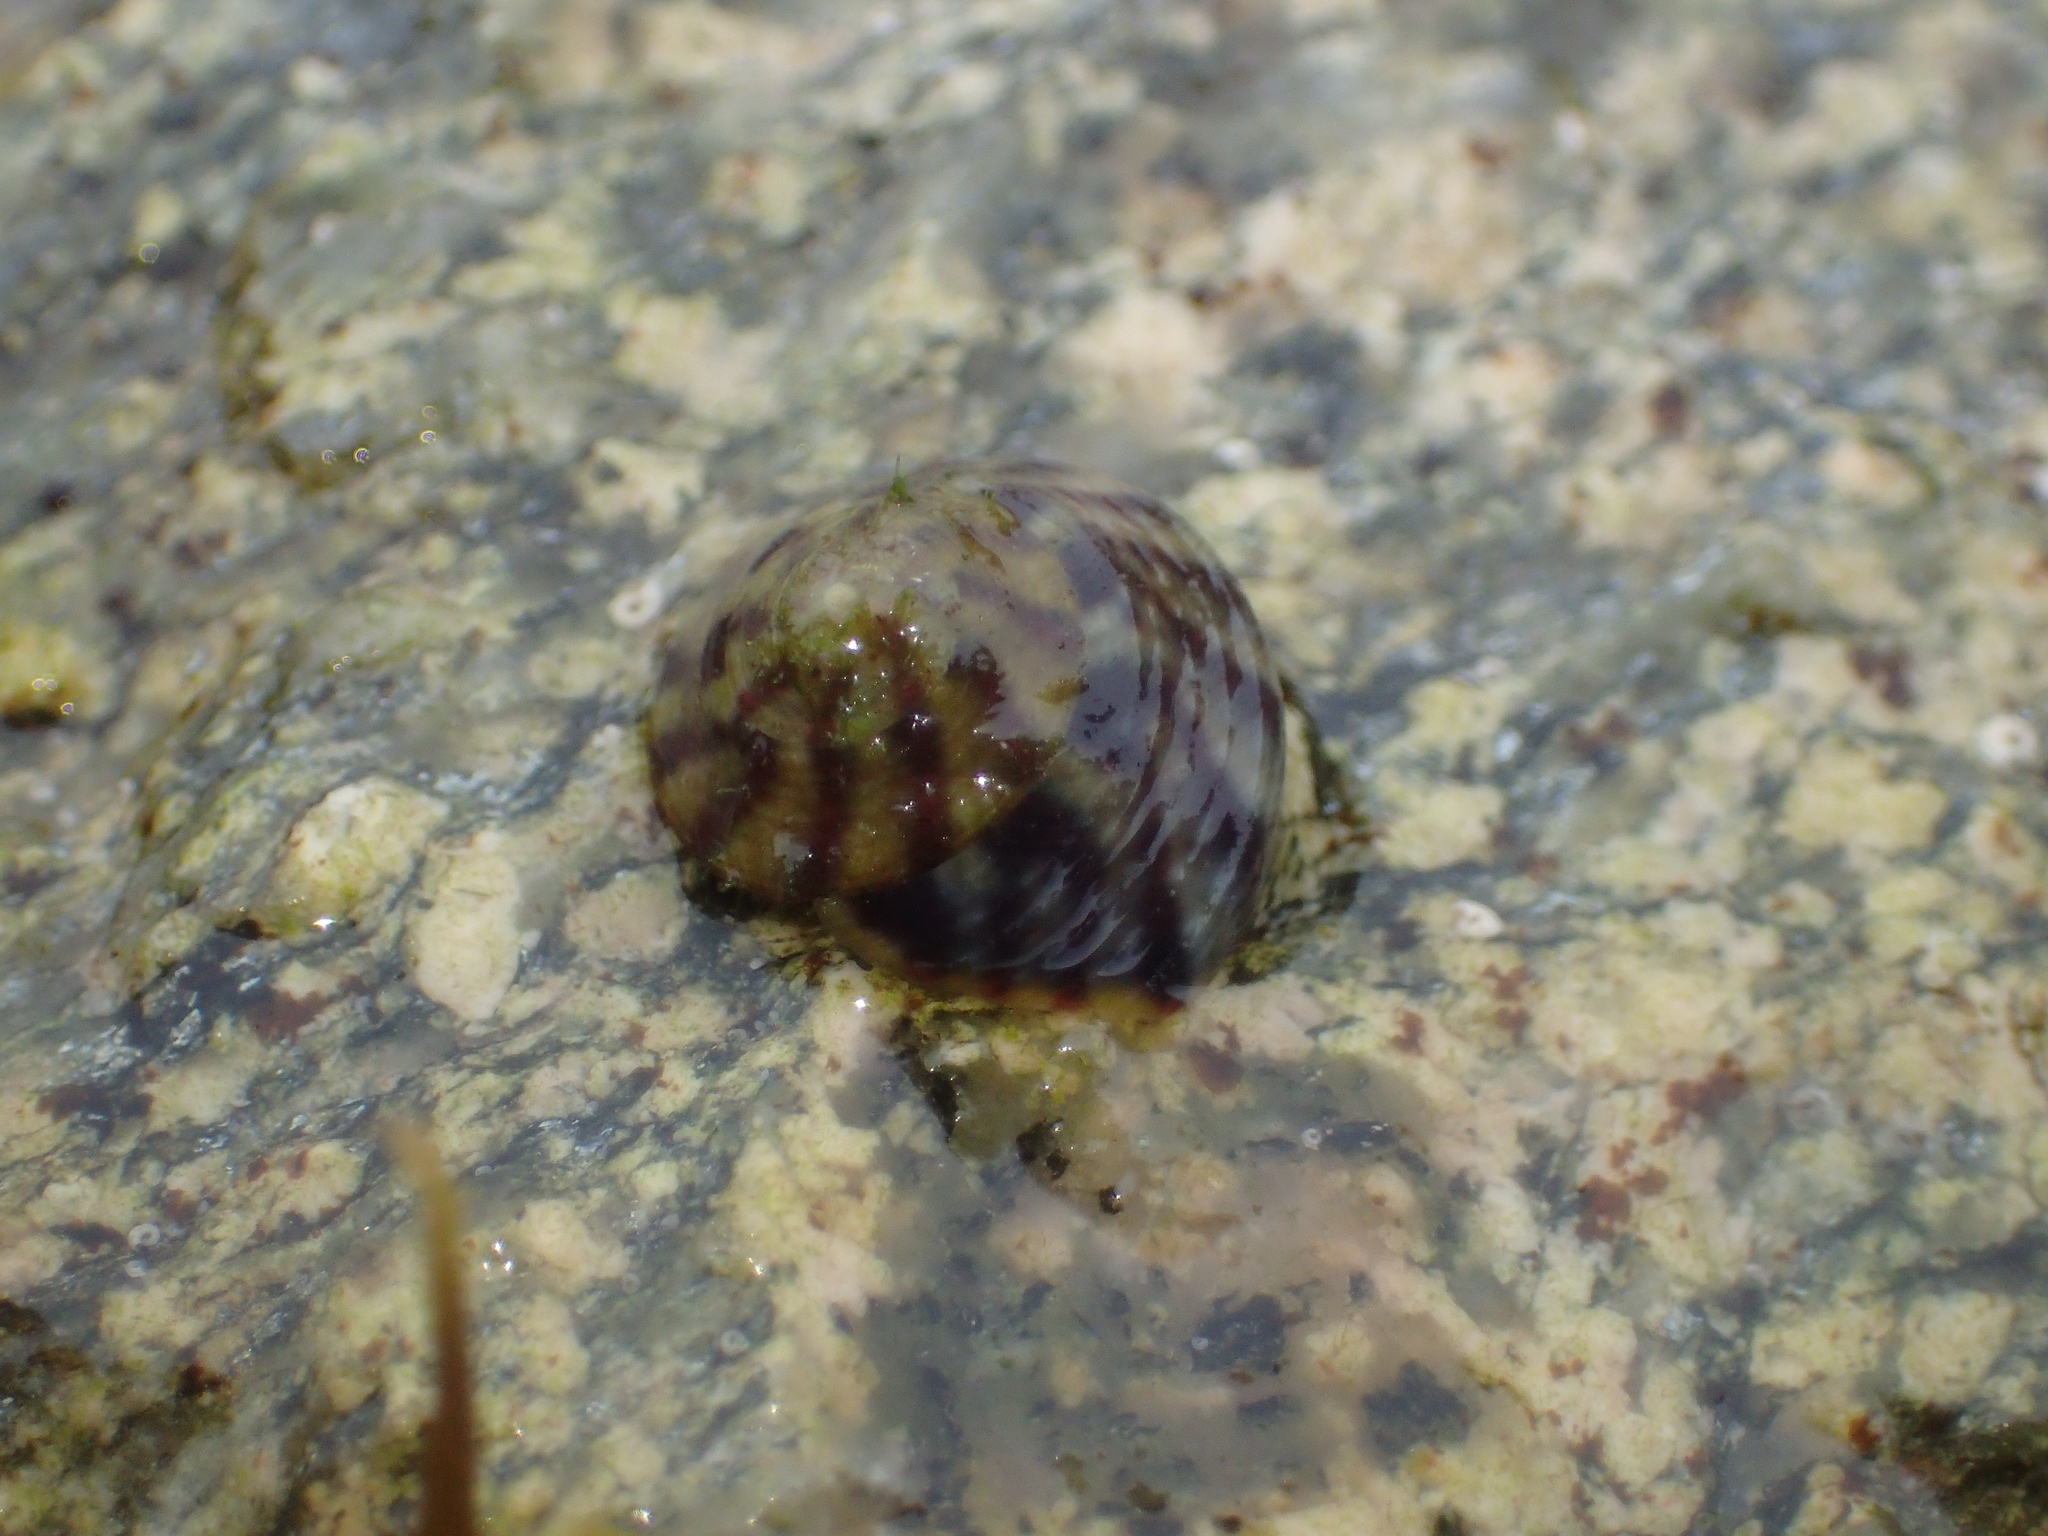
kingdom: Animalia
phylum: Mollusca
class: Gastropoda
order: Trochida
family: Trochidae
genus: Steromphala
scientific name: Steromphala umbilicalis
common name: Flat top shell
